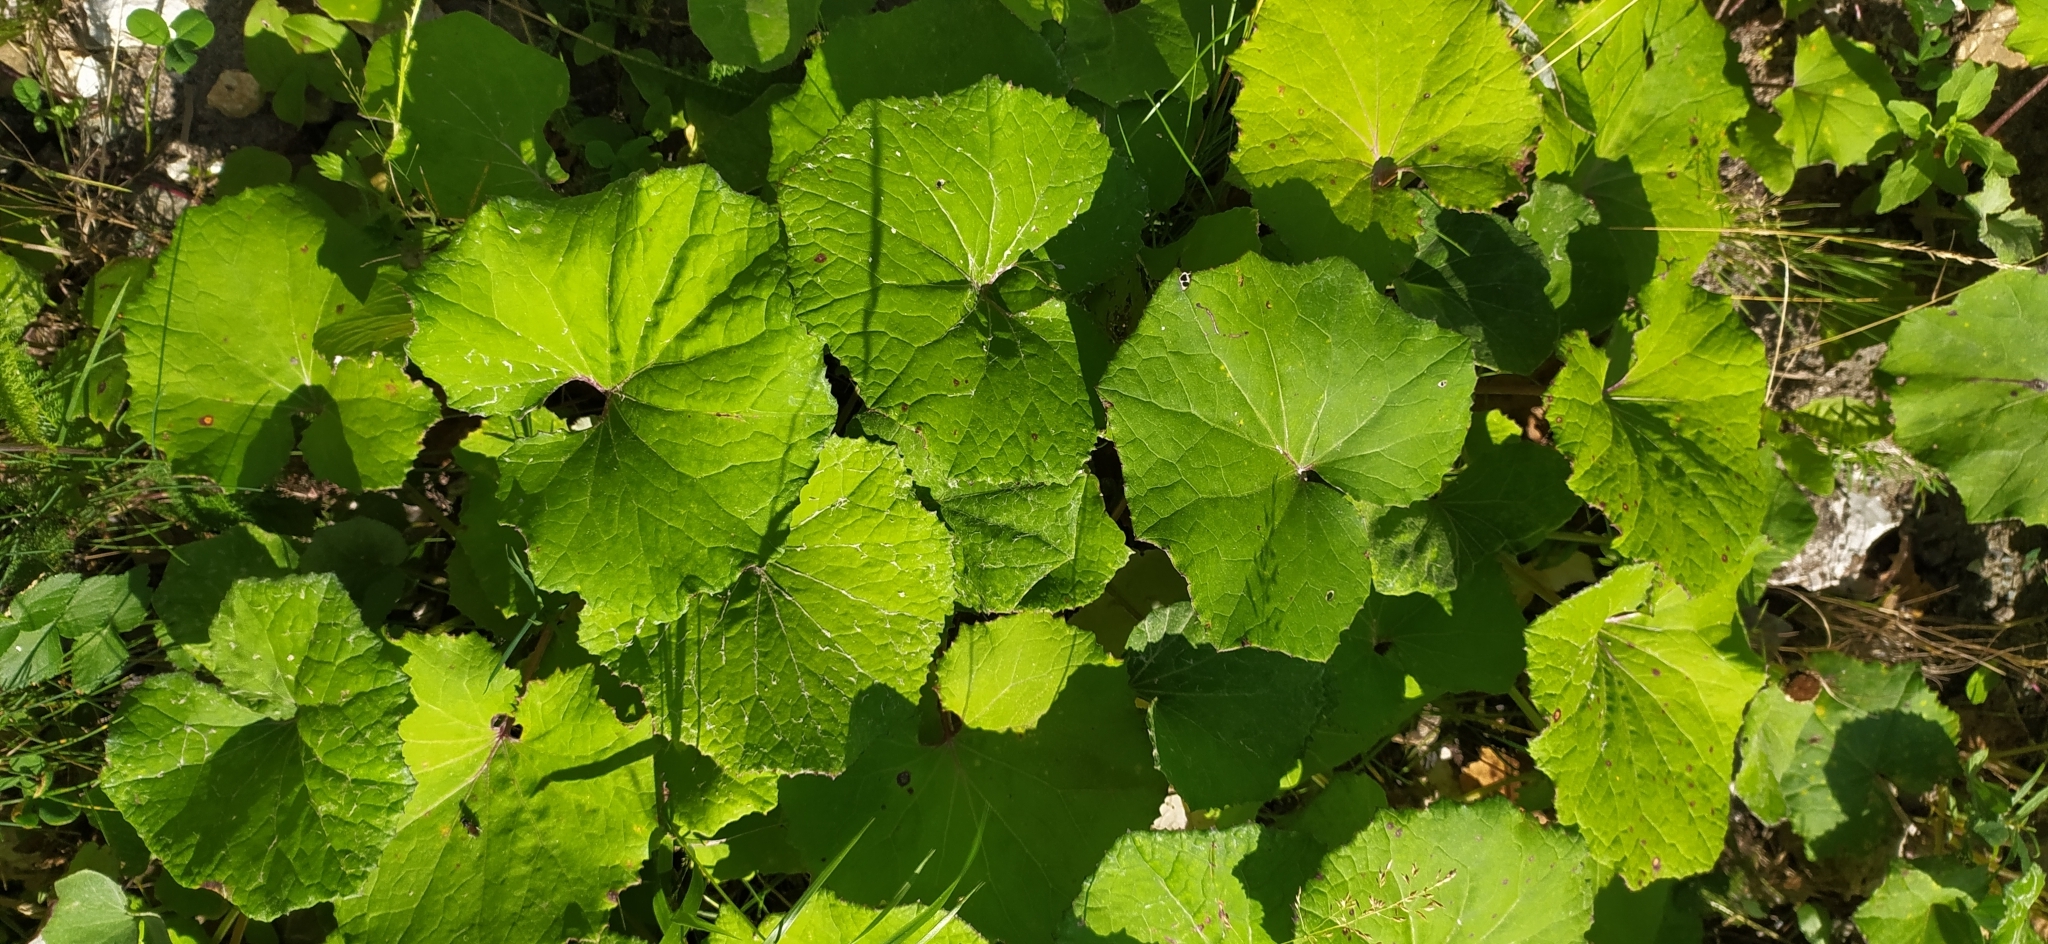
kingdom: Plantae
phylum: Tracheophyta
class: Magnoliopsida
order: Asterales
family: Asteraceae
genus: Tussilago
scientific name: Tussilago farfara
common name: Coltsfoot
